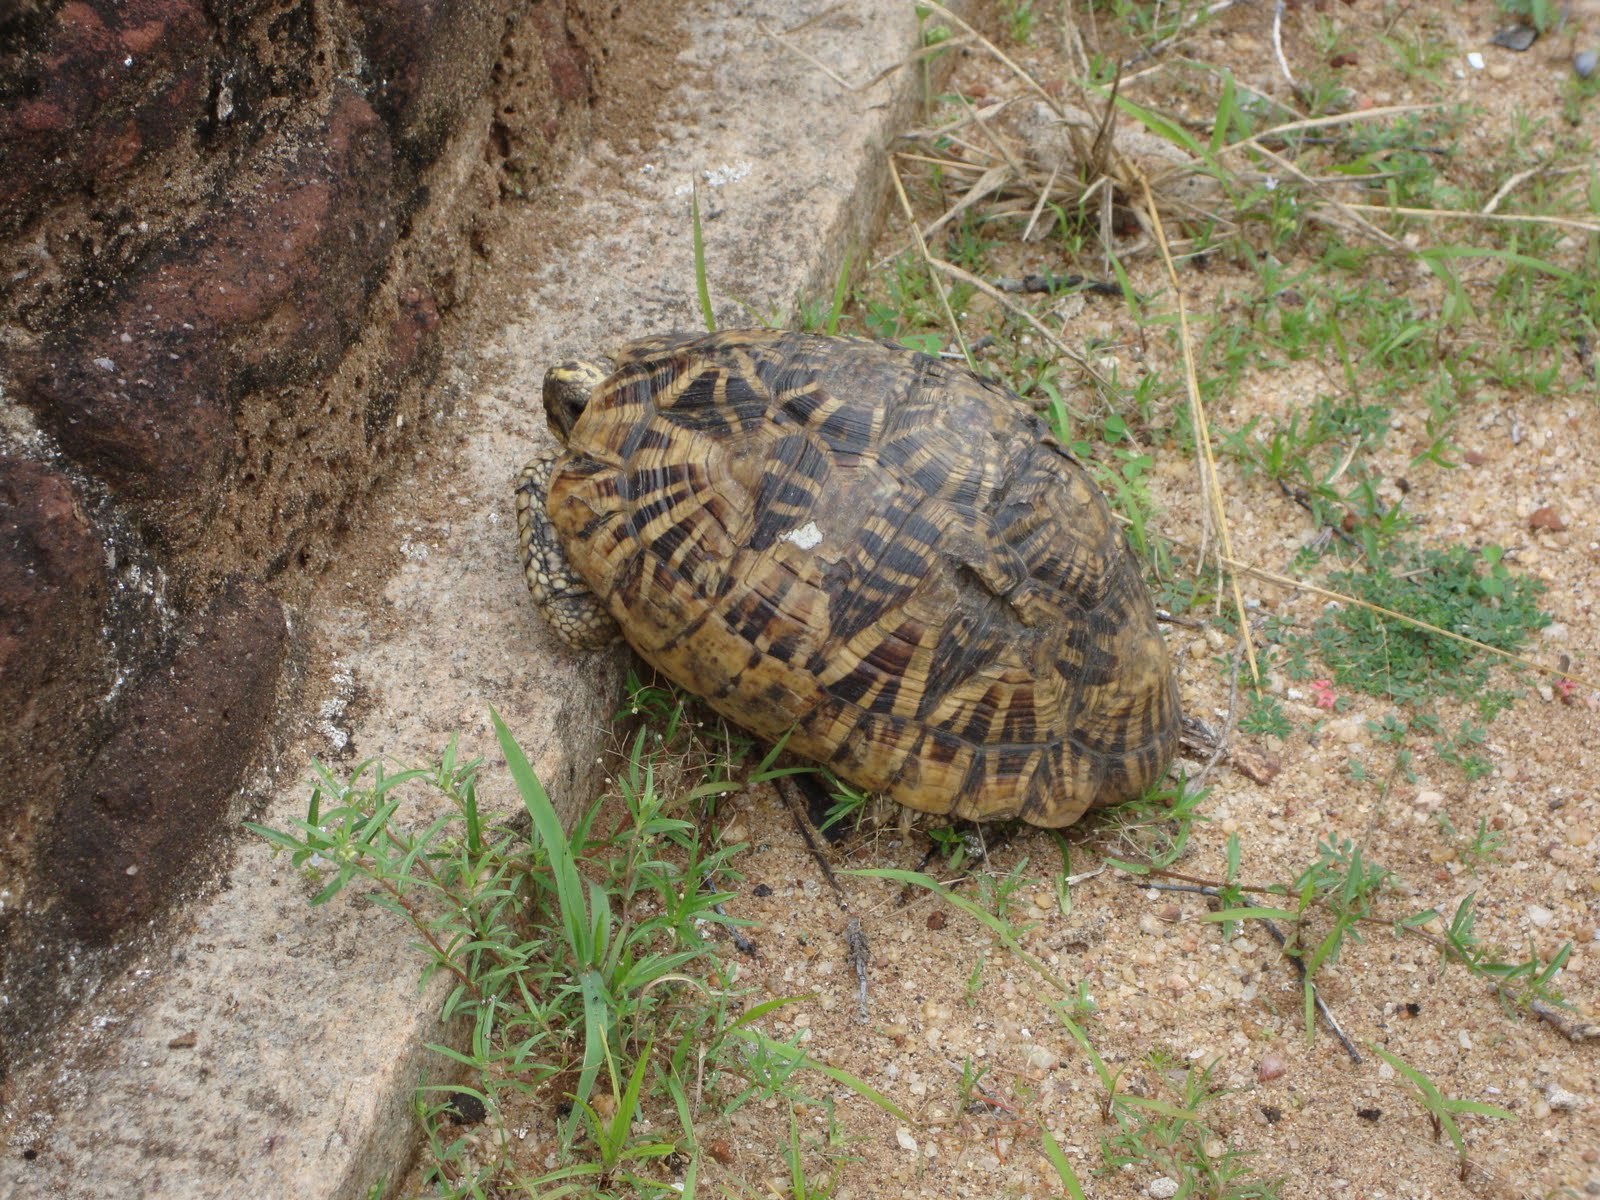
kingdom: Animalia
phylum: Chordata
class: Testudines
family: Testudinidae
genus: Geochelone
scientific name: Geochelone elegans
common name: Indian star tortoise
